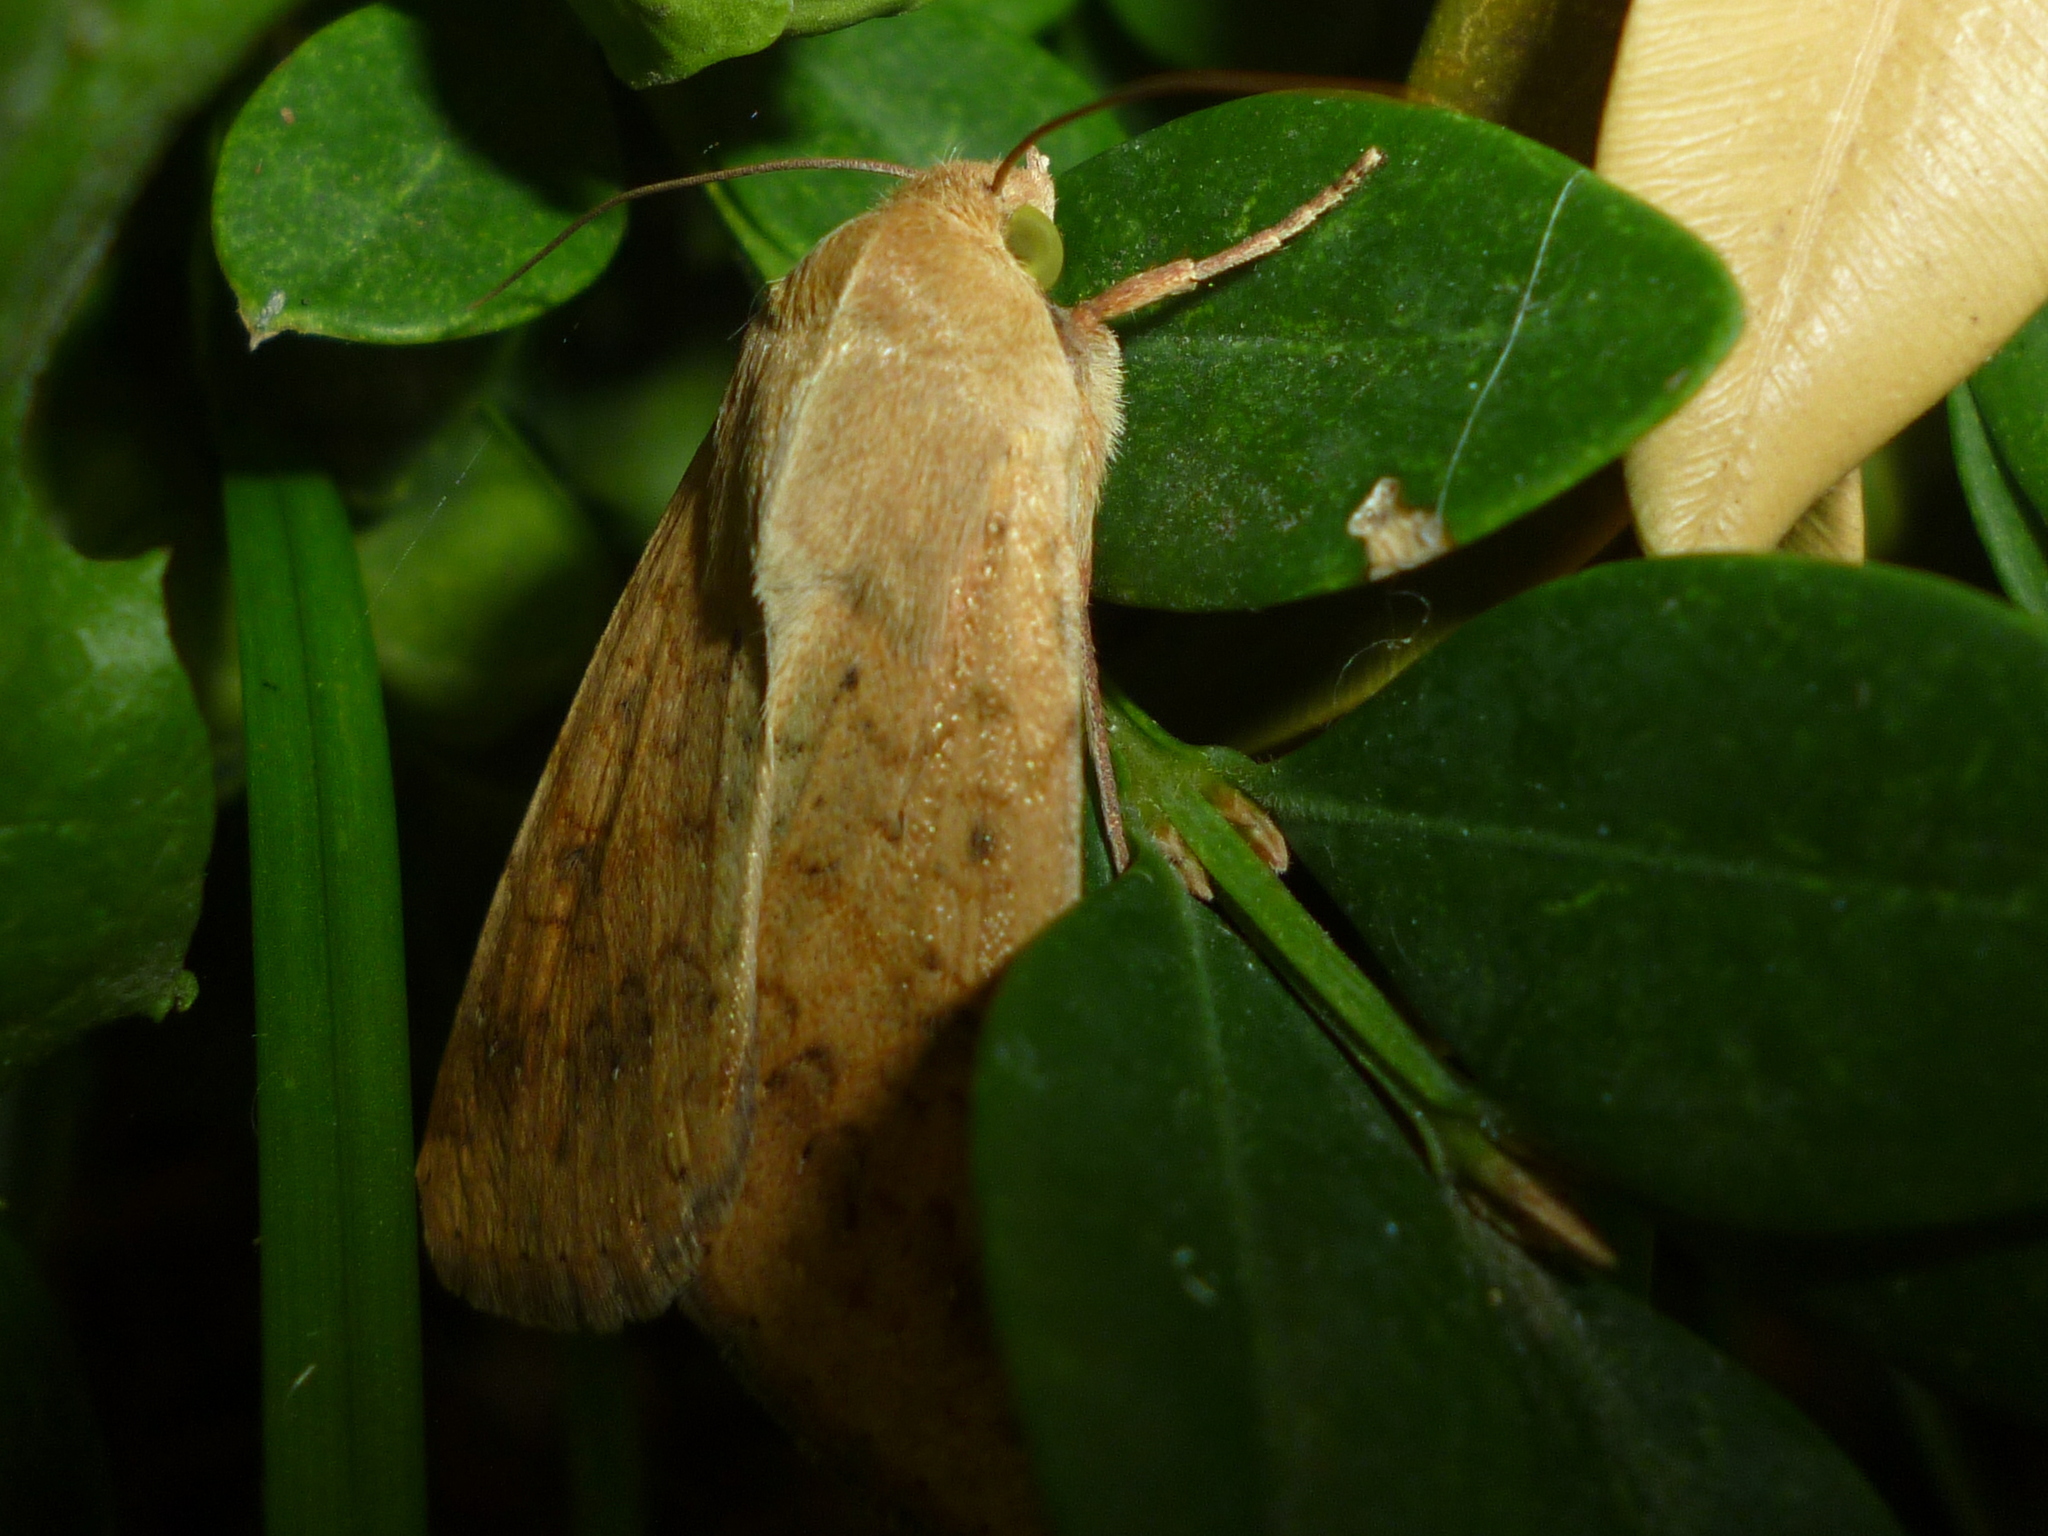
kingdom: Animalia
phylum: Arthropoda
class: Insecta
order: Lepidoptera
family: Noctuidae
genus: Helicoverpa
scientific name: Helicoverpa zea
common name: Bollworm
